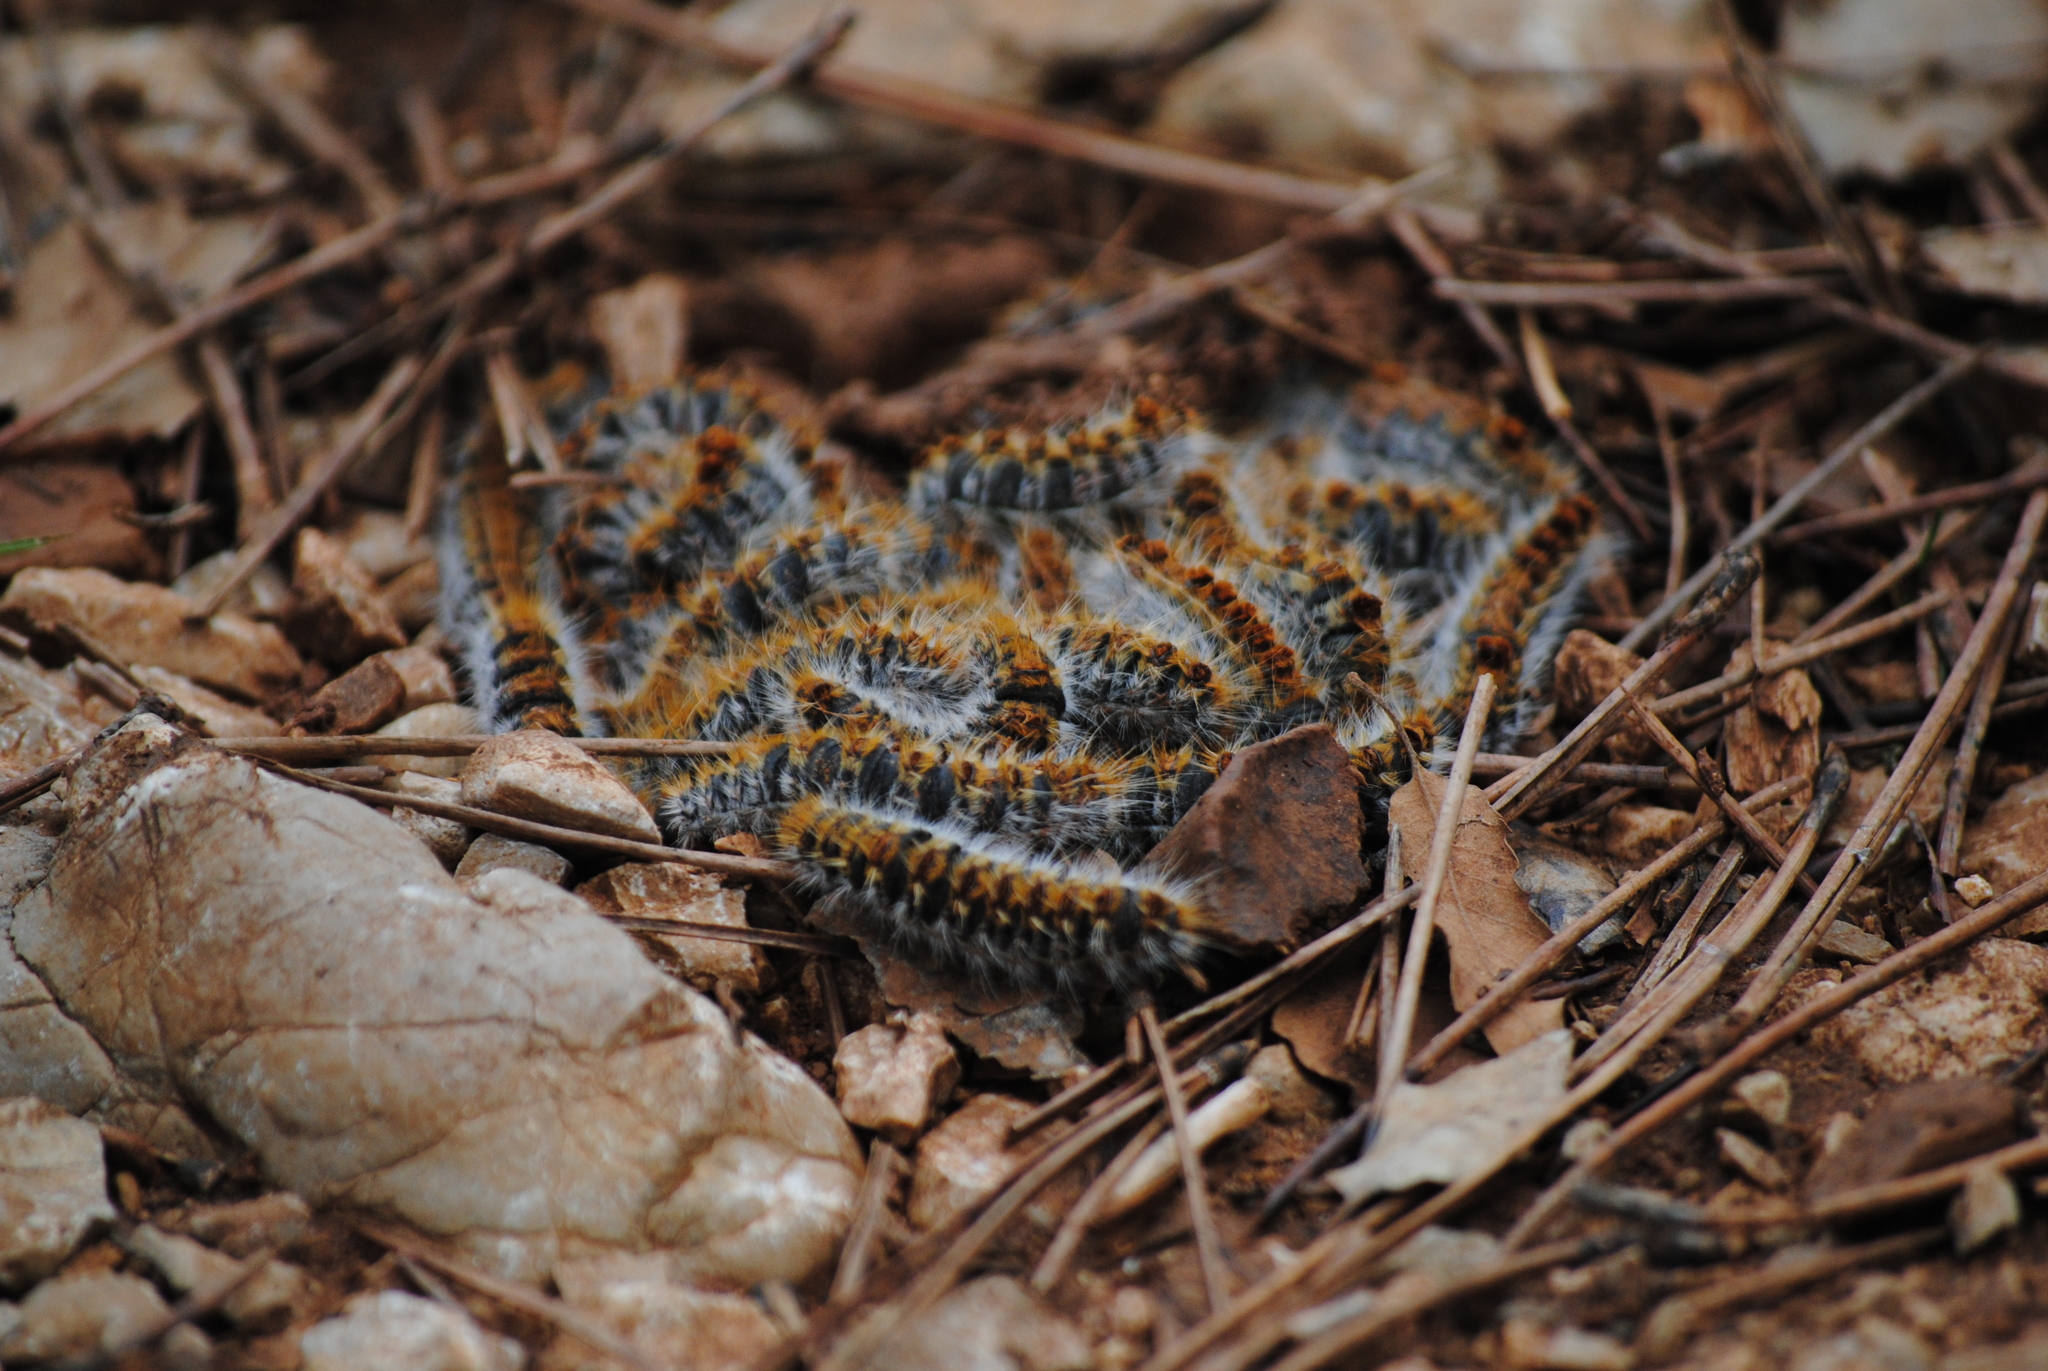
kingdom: Animalia
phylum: Arthropoda
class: Insecta
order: Lepidoptera
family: Notodontidae
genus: Thaumetopoea
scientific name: Thaumetopoea pityocampa
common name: Pine processionary
